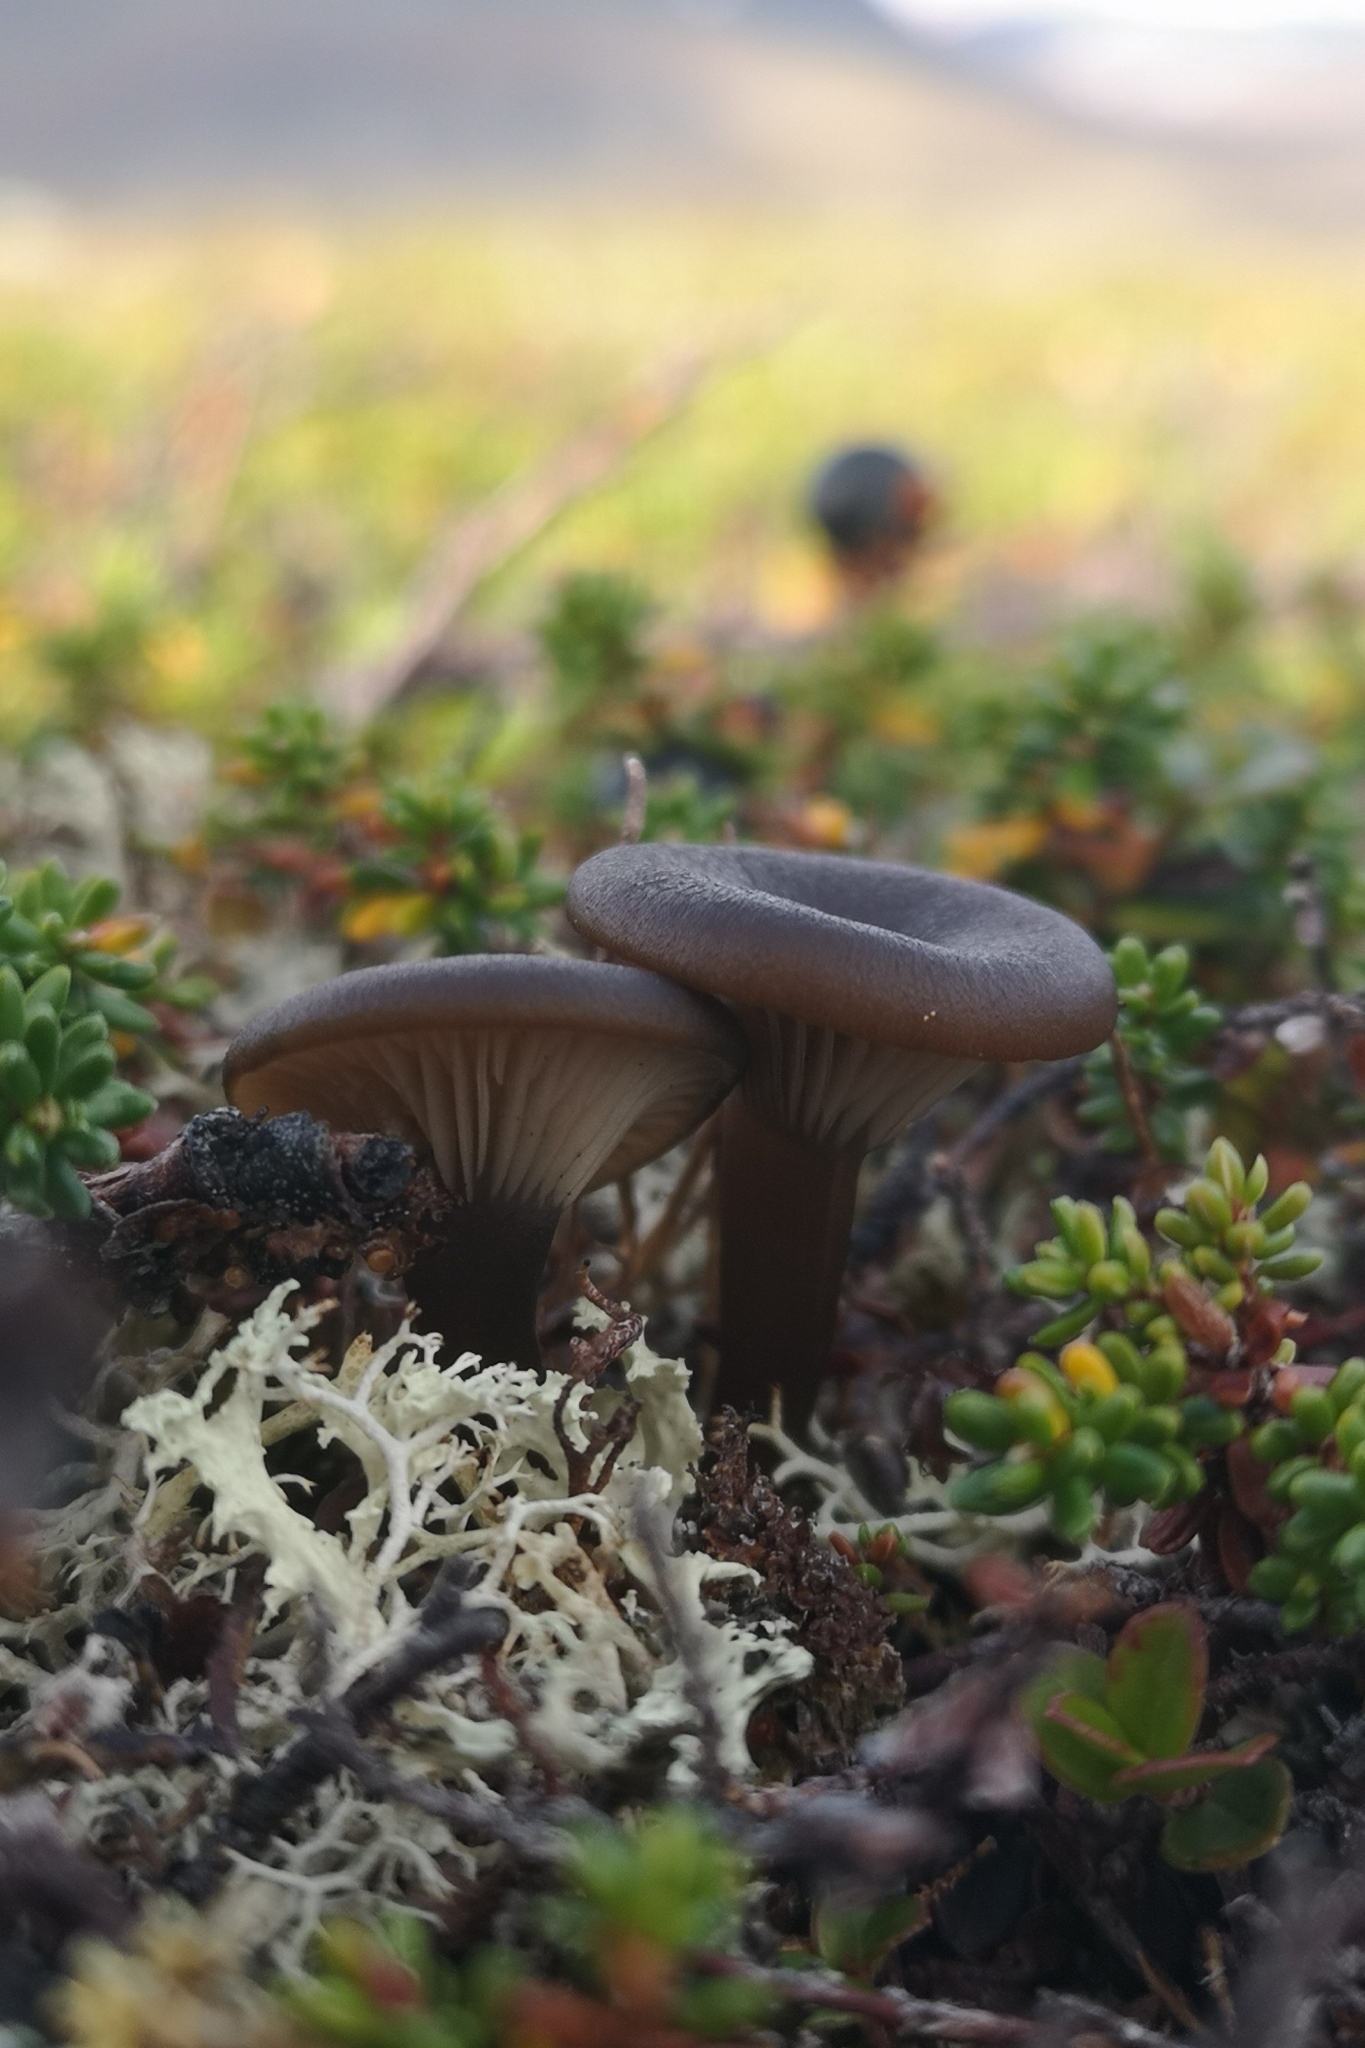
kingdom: Fungi
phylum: Basidiomycota
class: Agaricomycetes
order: Agaricales
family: Pseudoclitocybaceae
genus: Pseudoclitocybe
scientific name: Pseudoclitocybe cyathiformis
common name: Goblet
